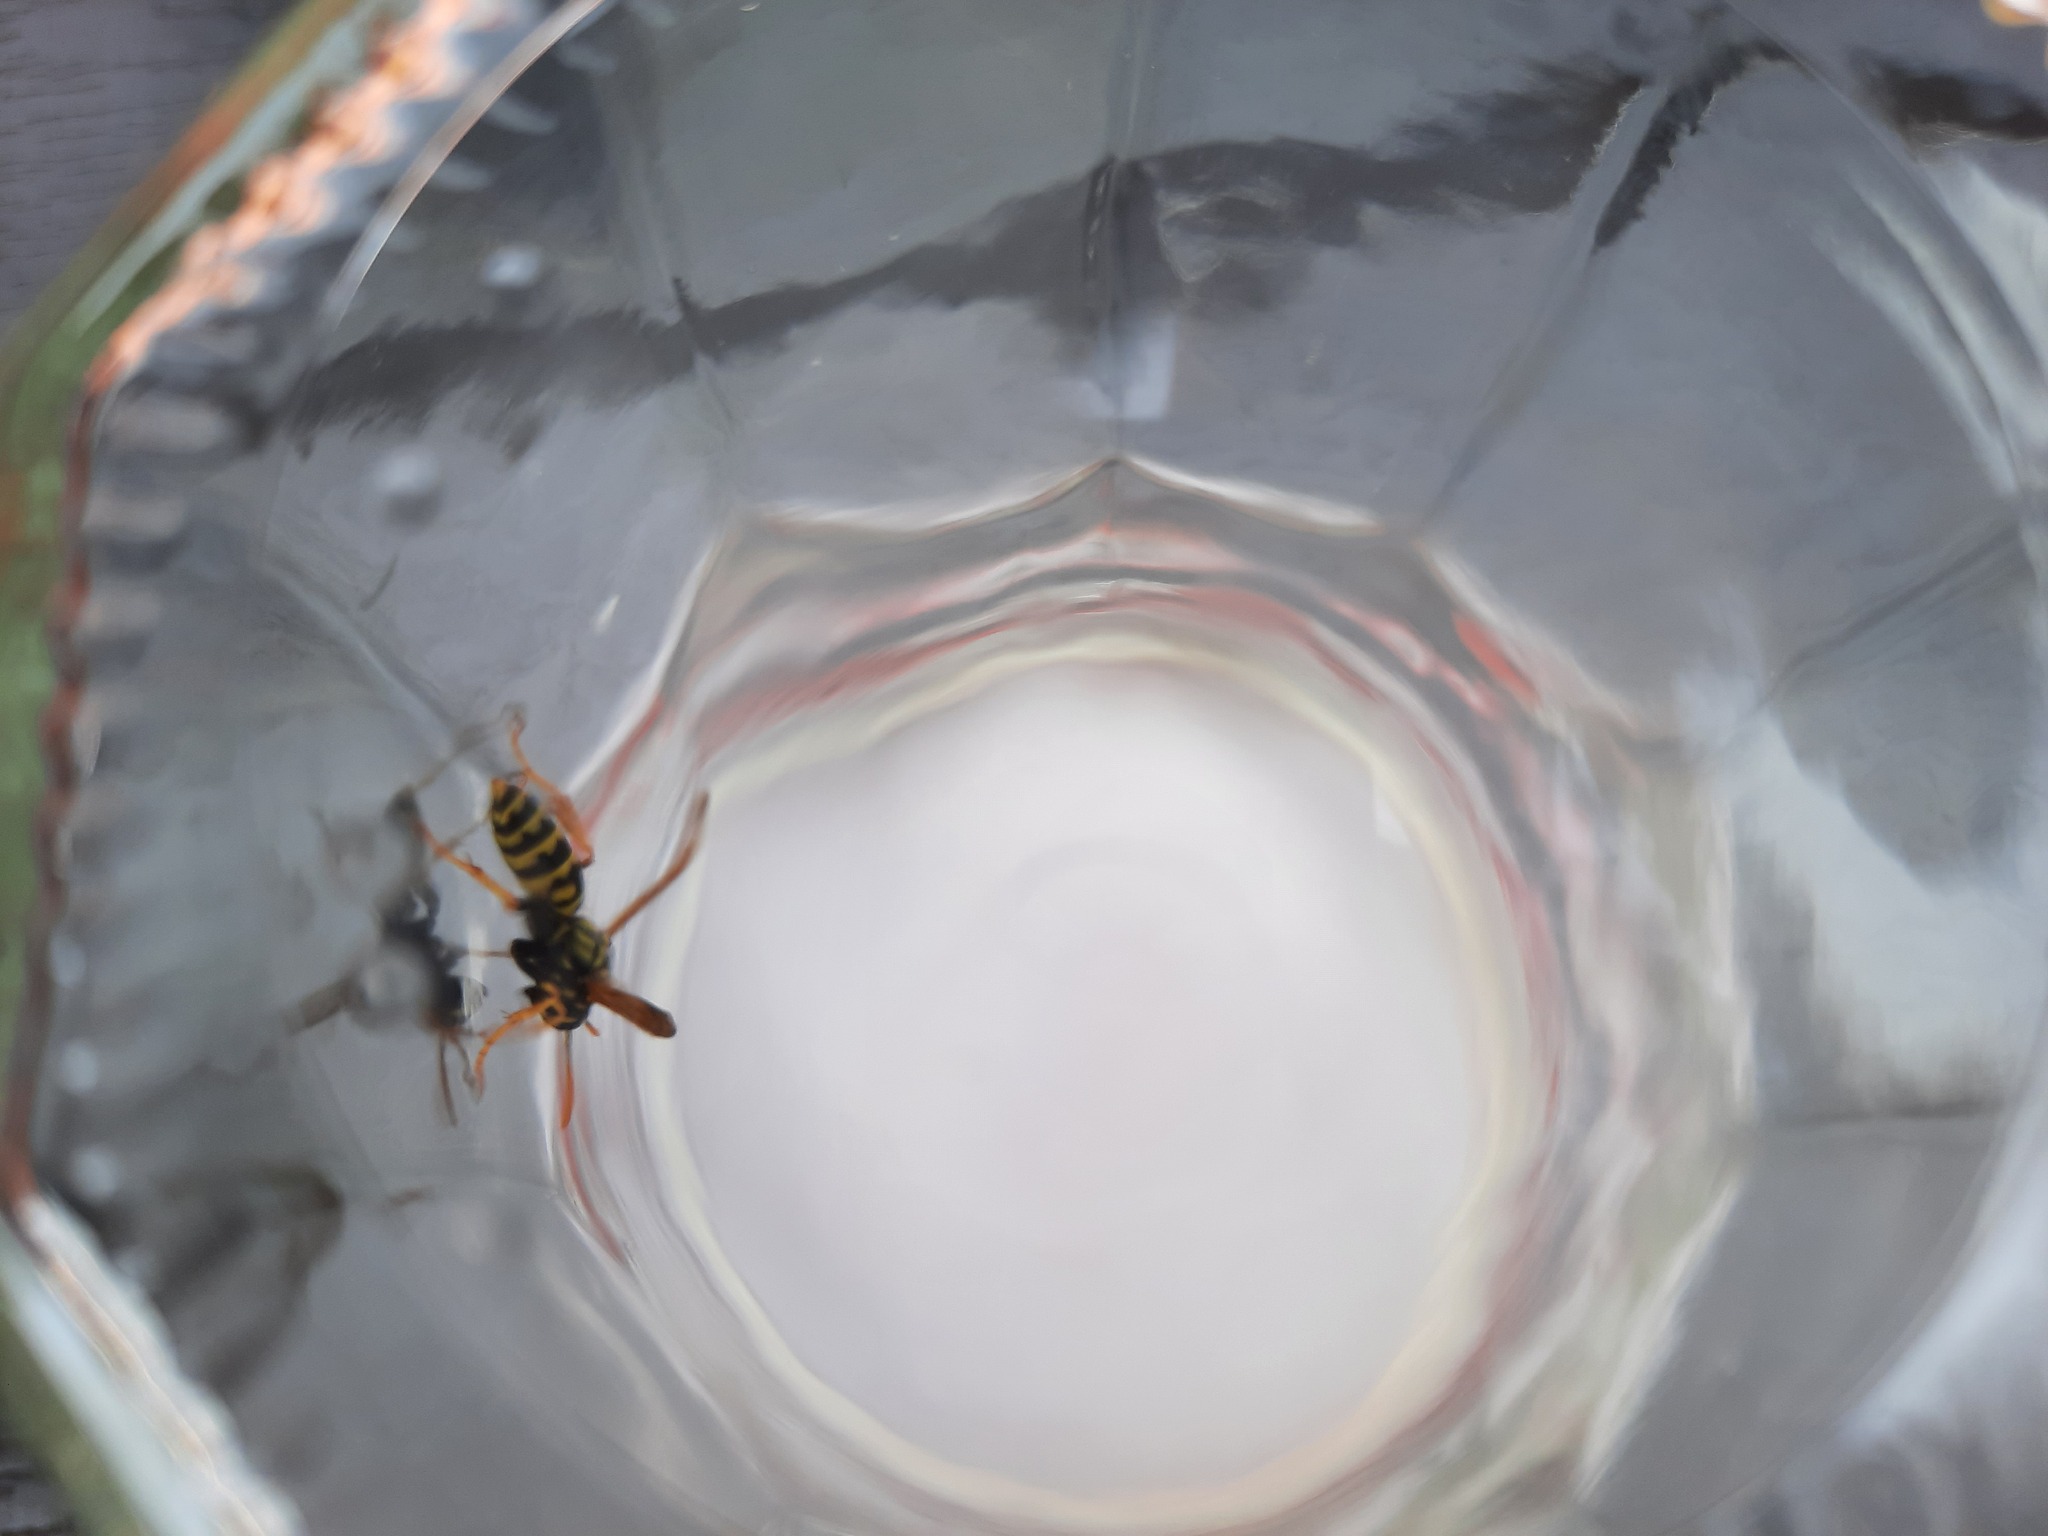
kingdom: Animalia
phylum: Arthropoda
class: Insecta
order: Hymenoptera
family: Eumenidae
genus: Polistes
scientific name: Polistes dominula
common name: Paper wasp
